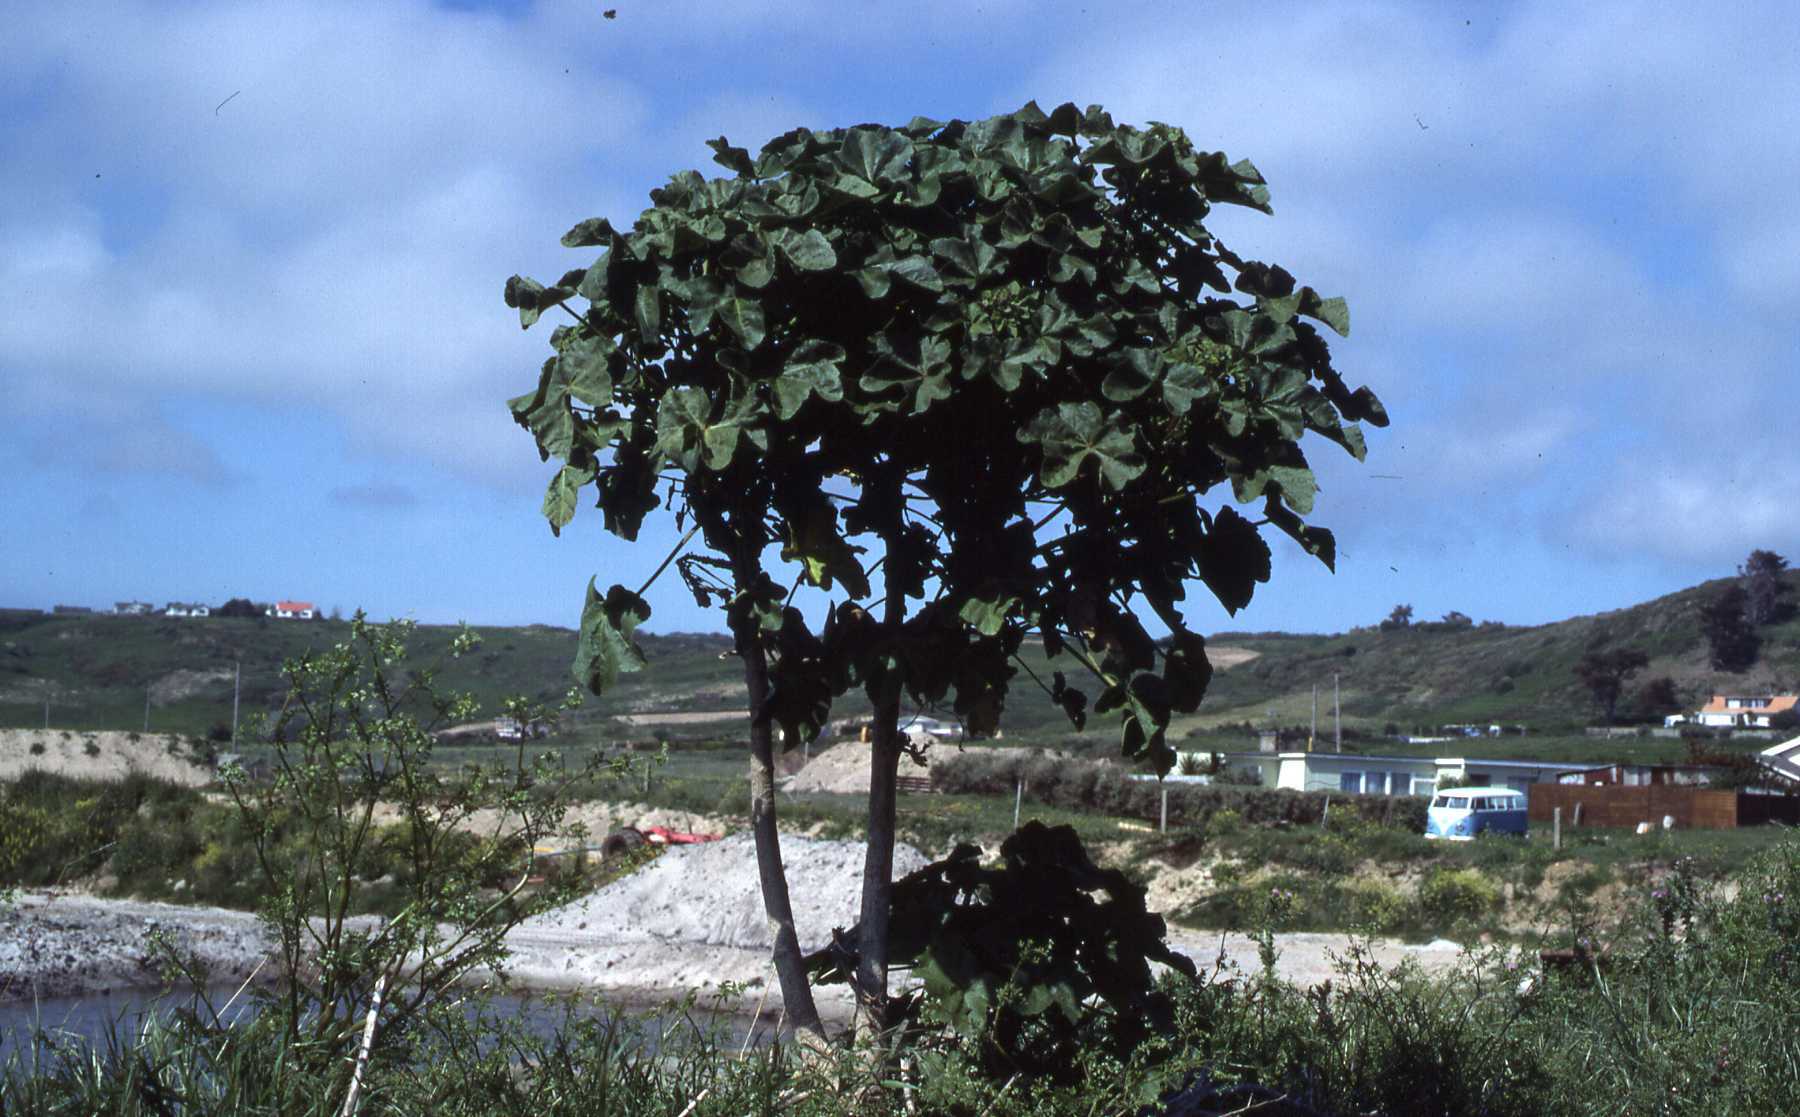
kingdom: Plantae
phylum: Tracheophyta
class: Magnoliopsida
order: Malvales
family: Malvaceae
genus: Malva
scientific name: Malva arborea
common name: Tree mallow
